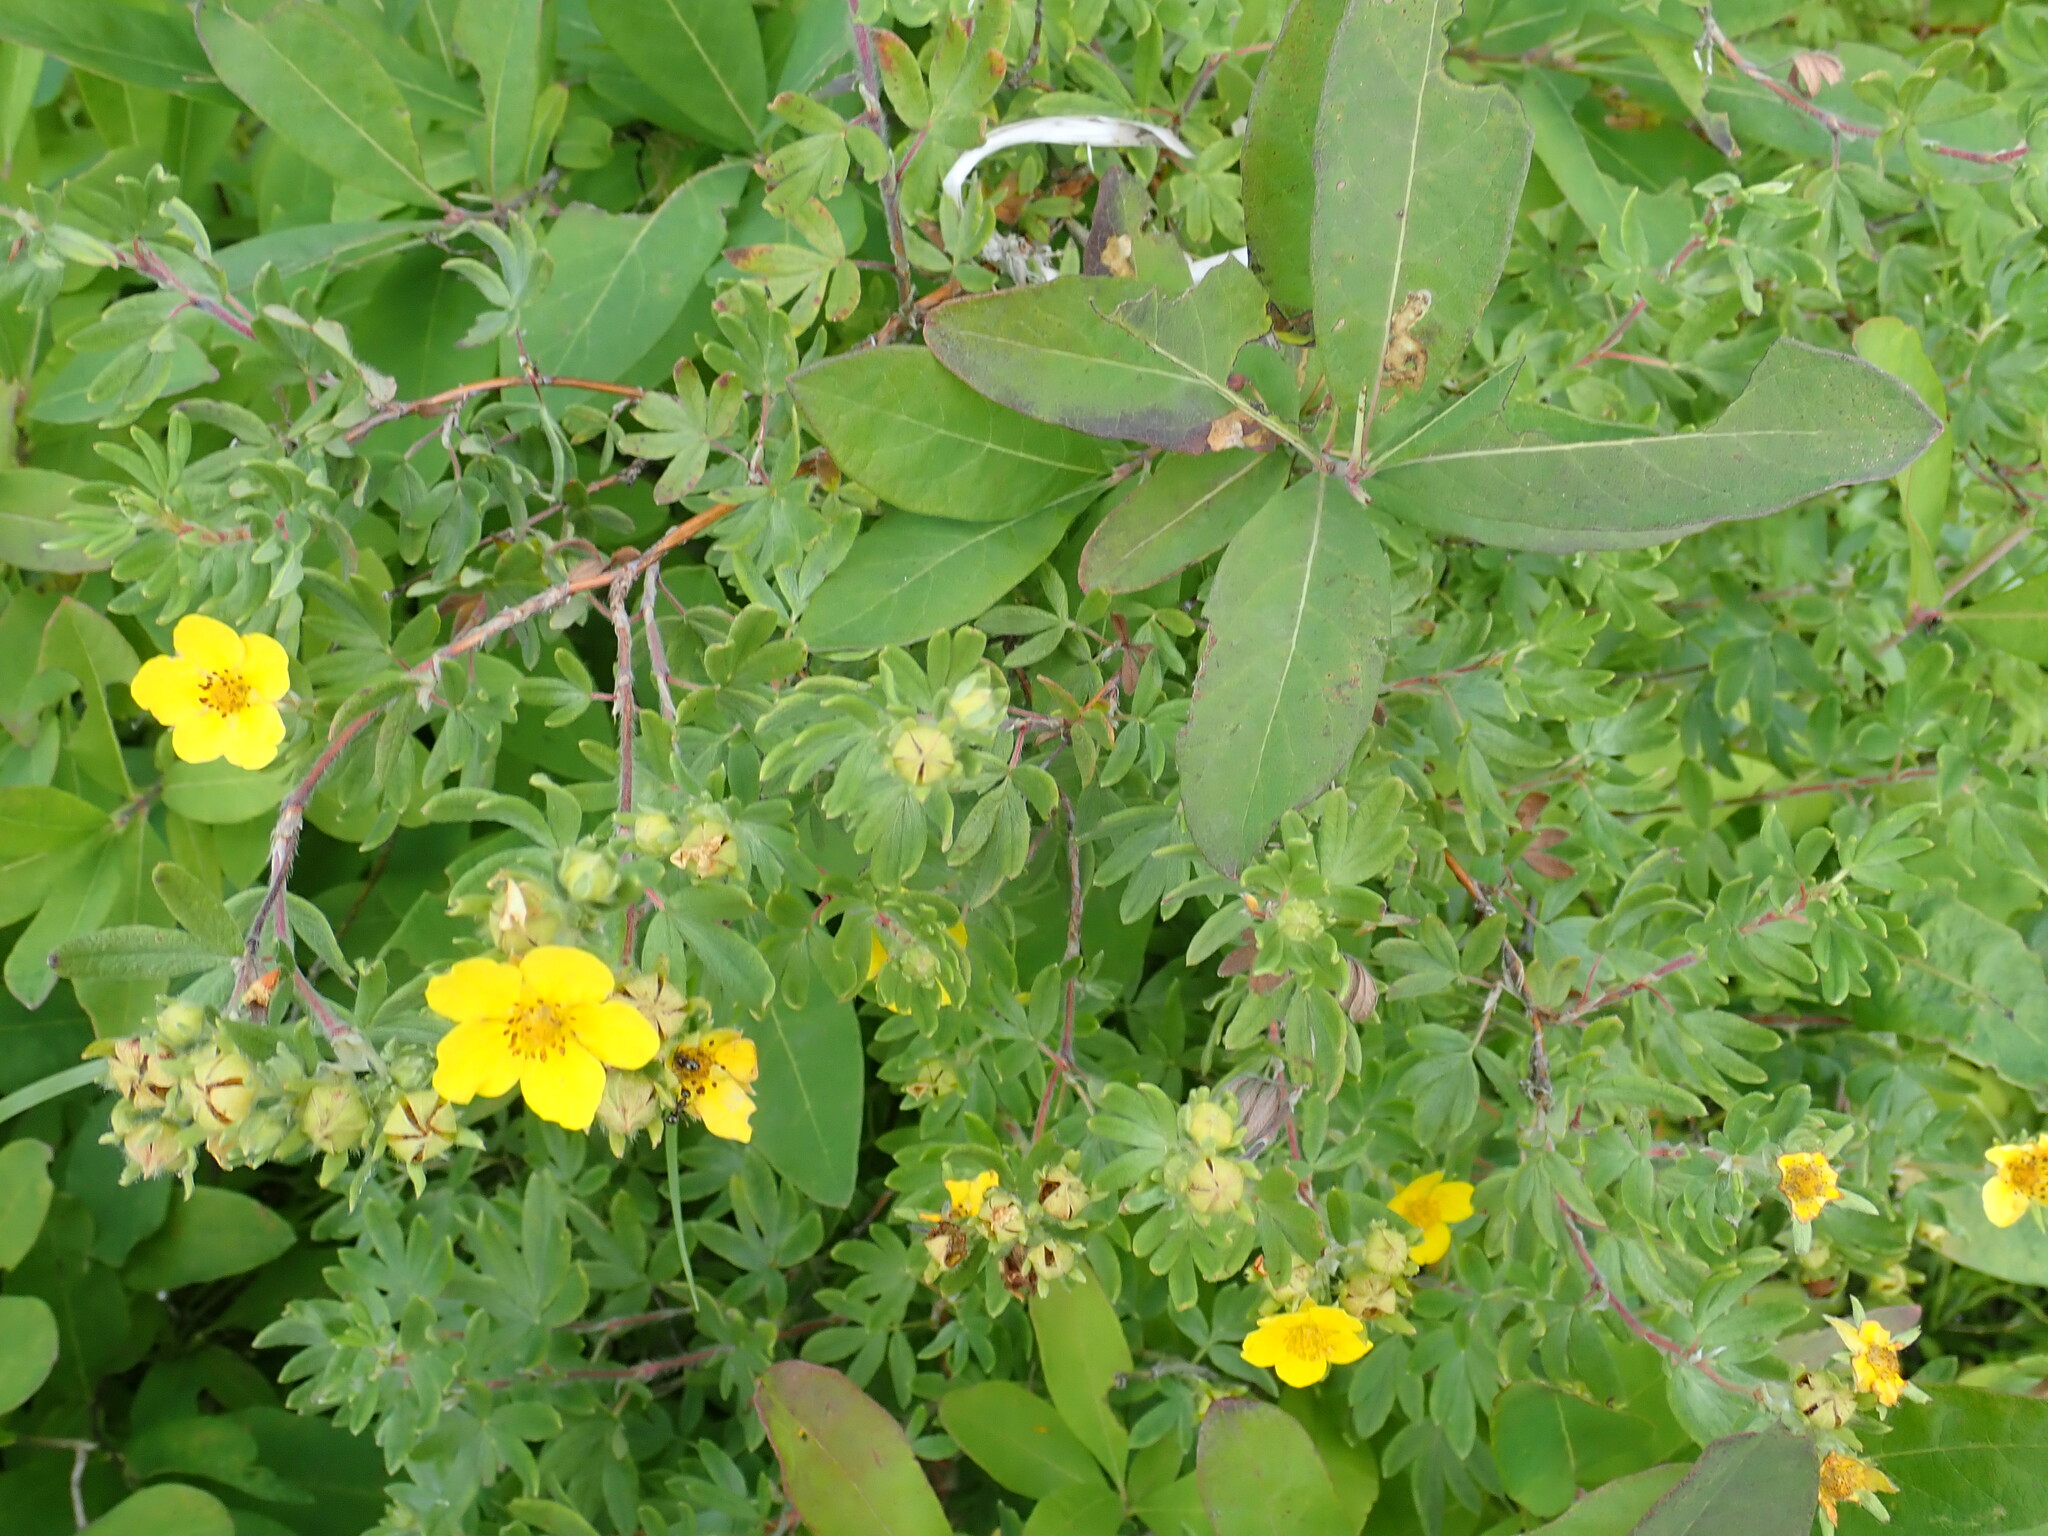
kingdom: Plantae
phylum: Tracheophyta
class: Magnoliopsida
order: Rosales
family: Rosaceae
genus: Dasiphora
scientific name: Dasiphora fruticosa
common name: Shrubby cinquefoil
